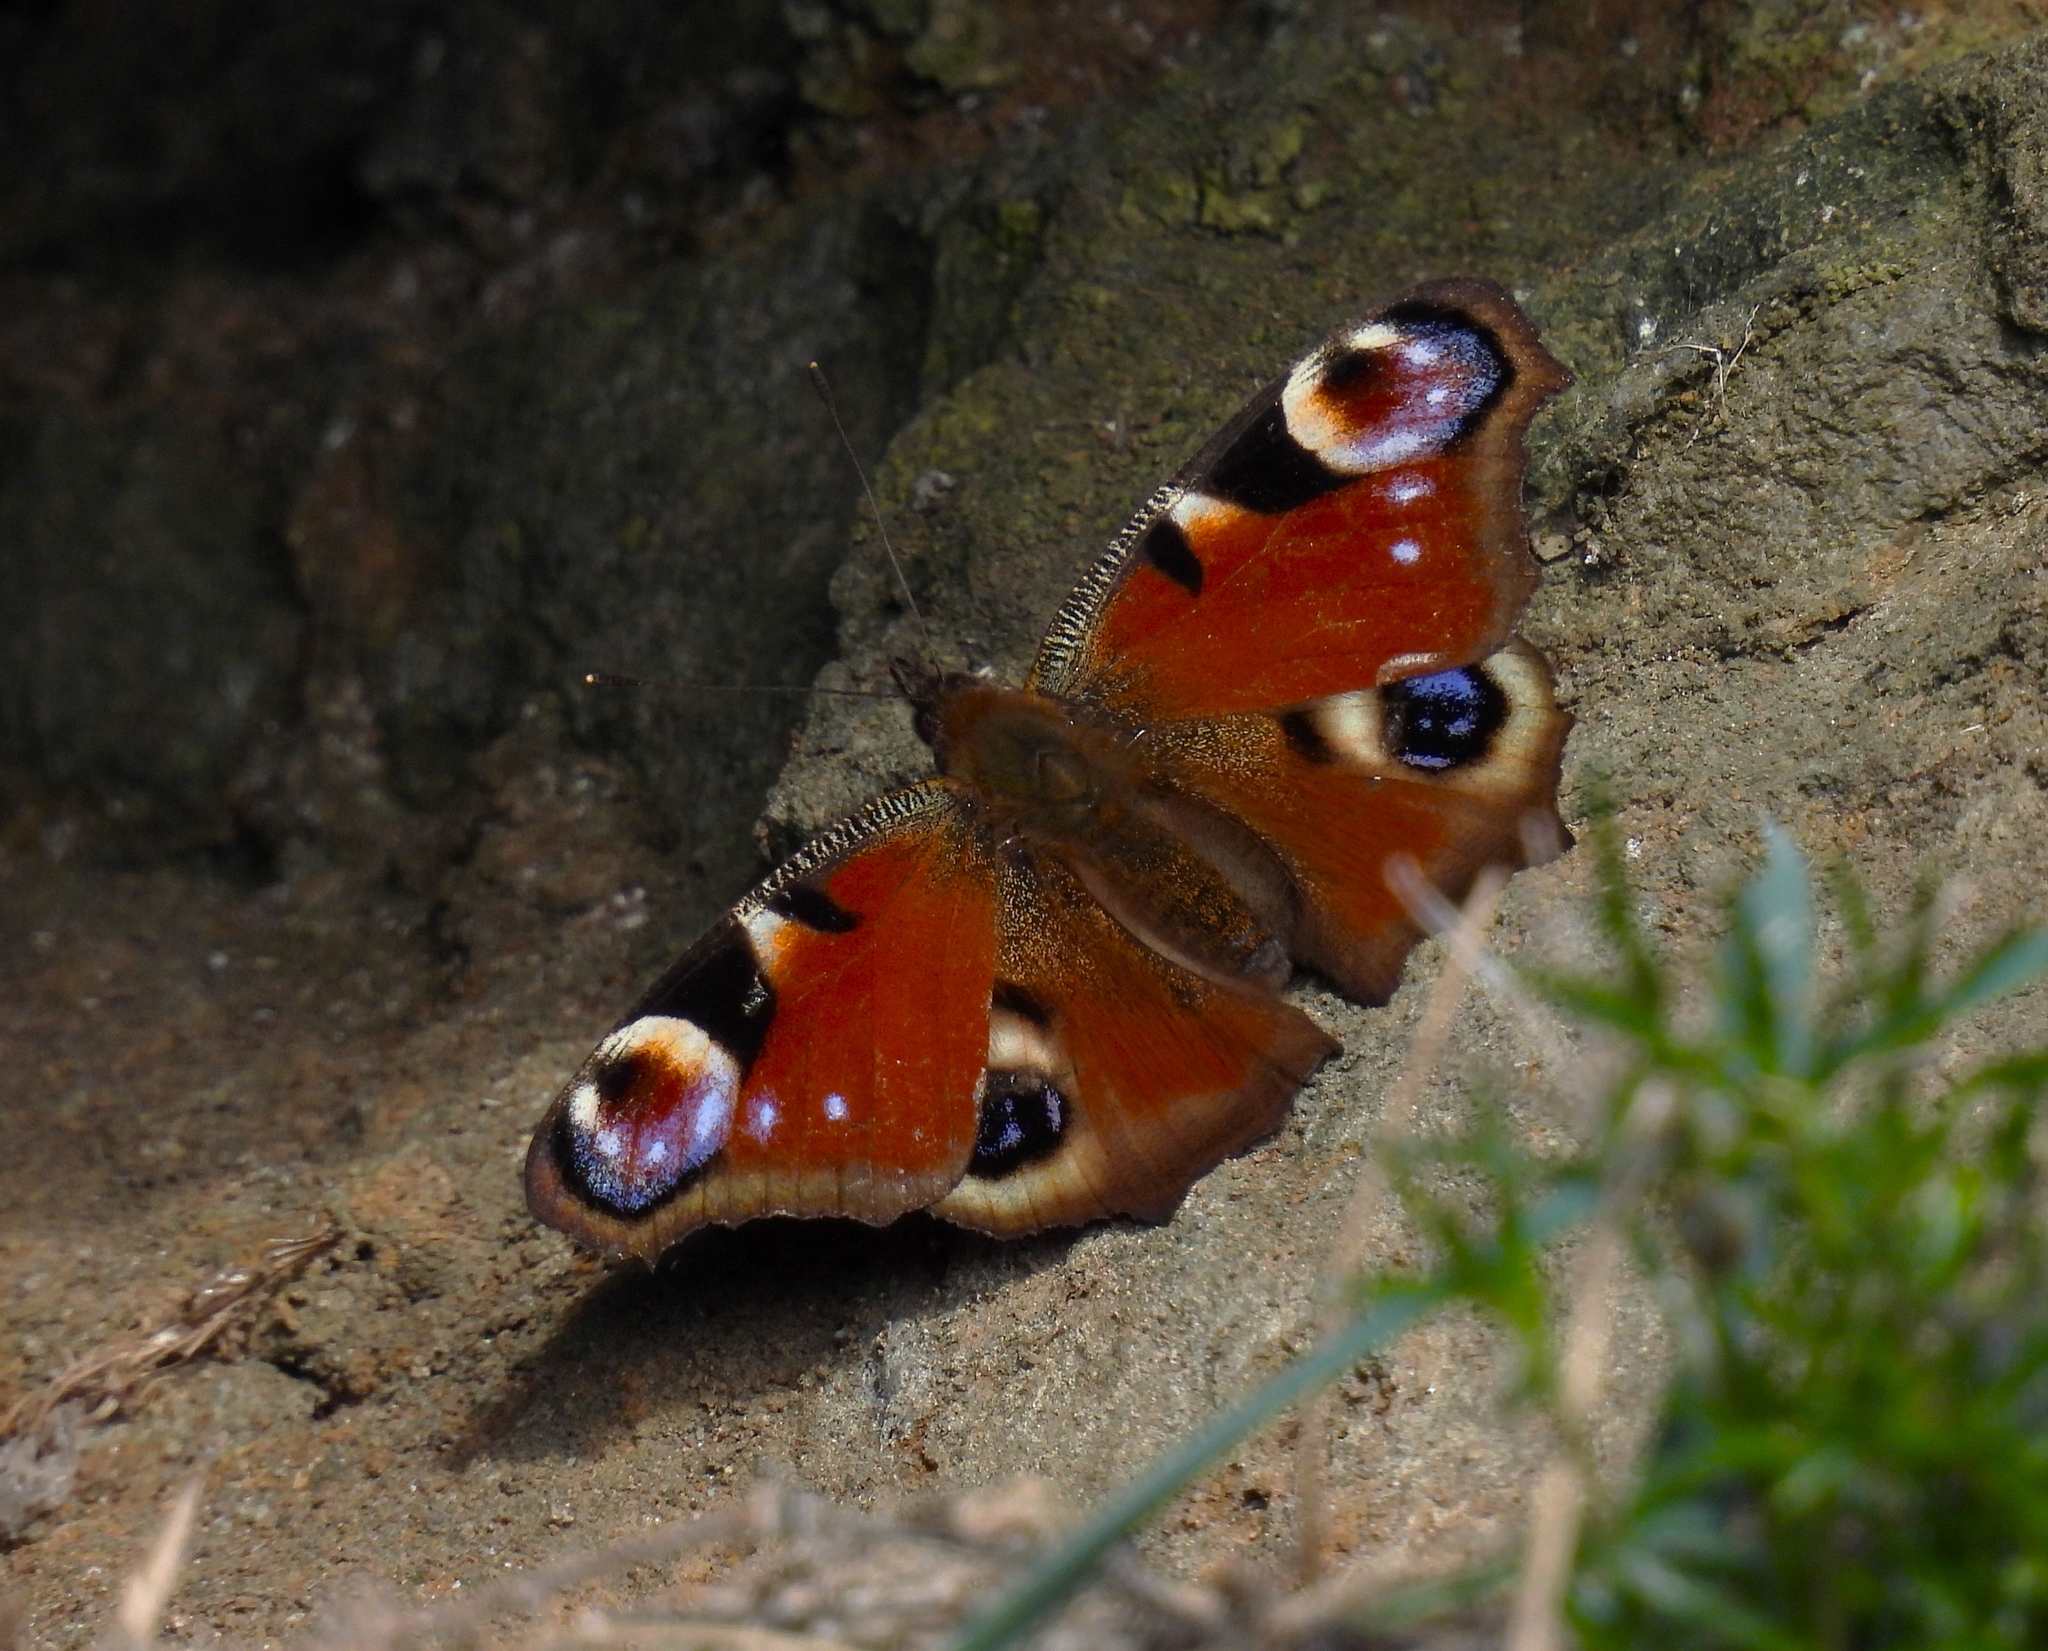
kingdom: Animalia
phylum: Arthropoda
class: Insecta
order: Lepidoptera
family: Nymphalidae
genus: Aglais
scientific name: Aglais io
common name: Peacock
